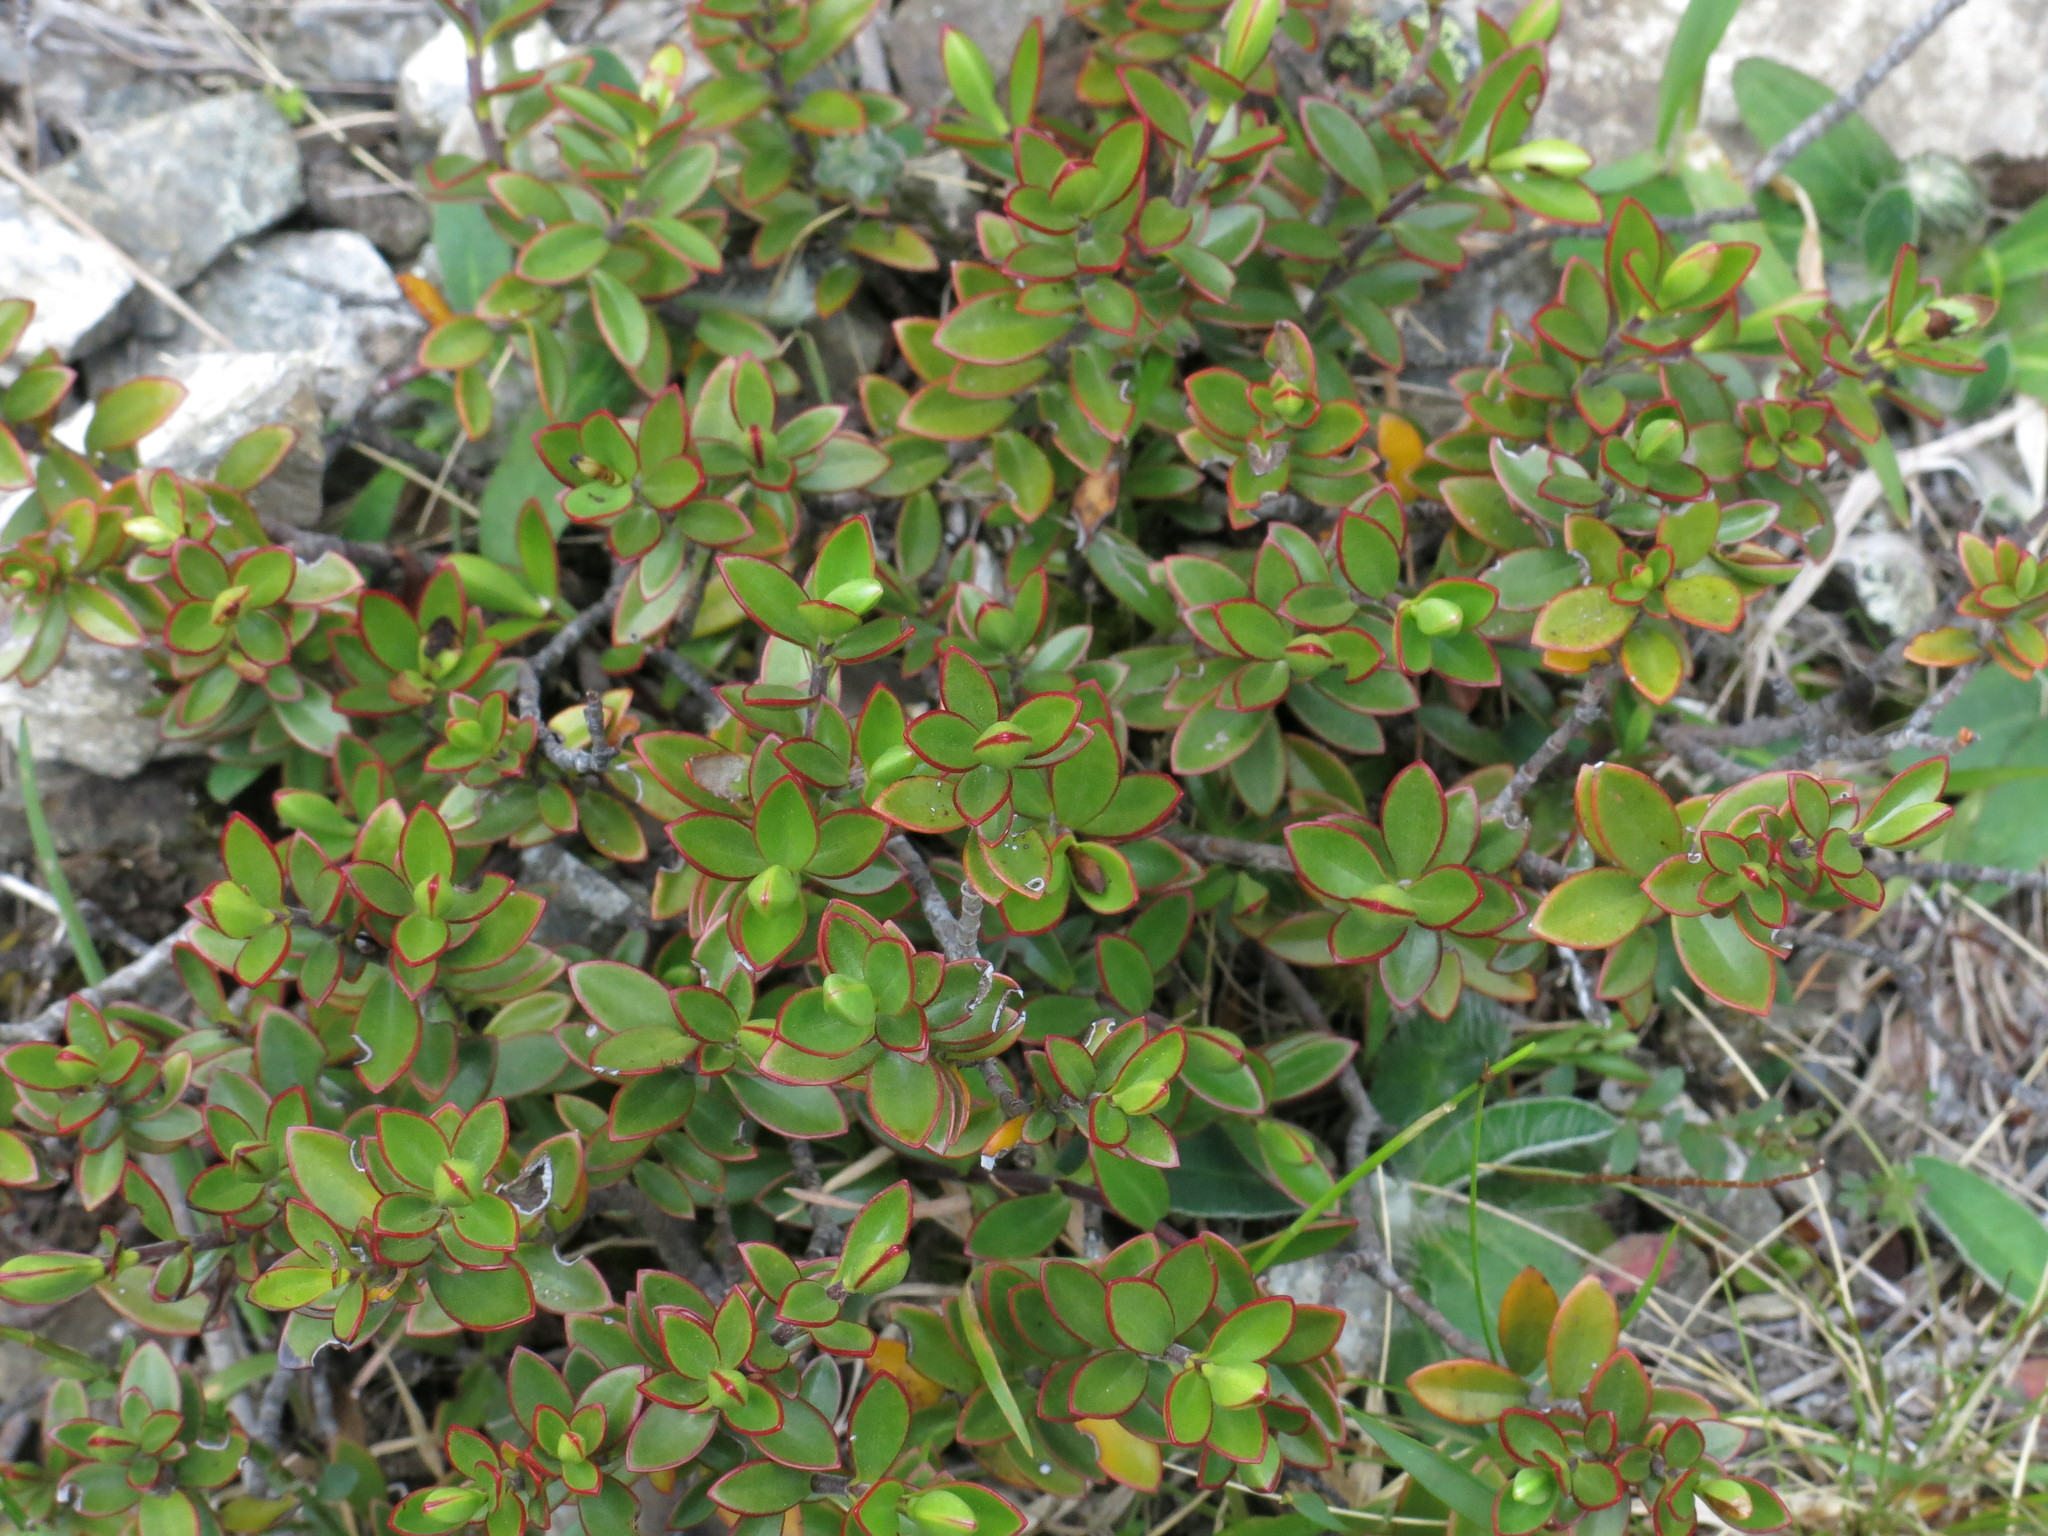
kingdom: Plantae
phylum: Tracheophyta
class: Magnoliopsida
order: Lamiales
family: Plantaginaceae
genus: Veronica
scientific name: Veronica decumbens
